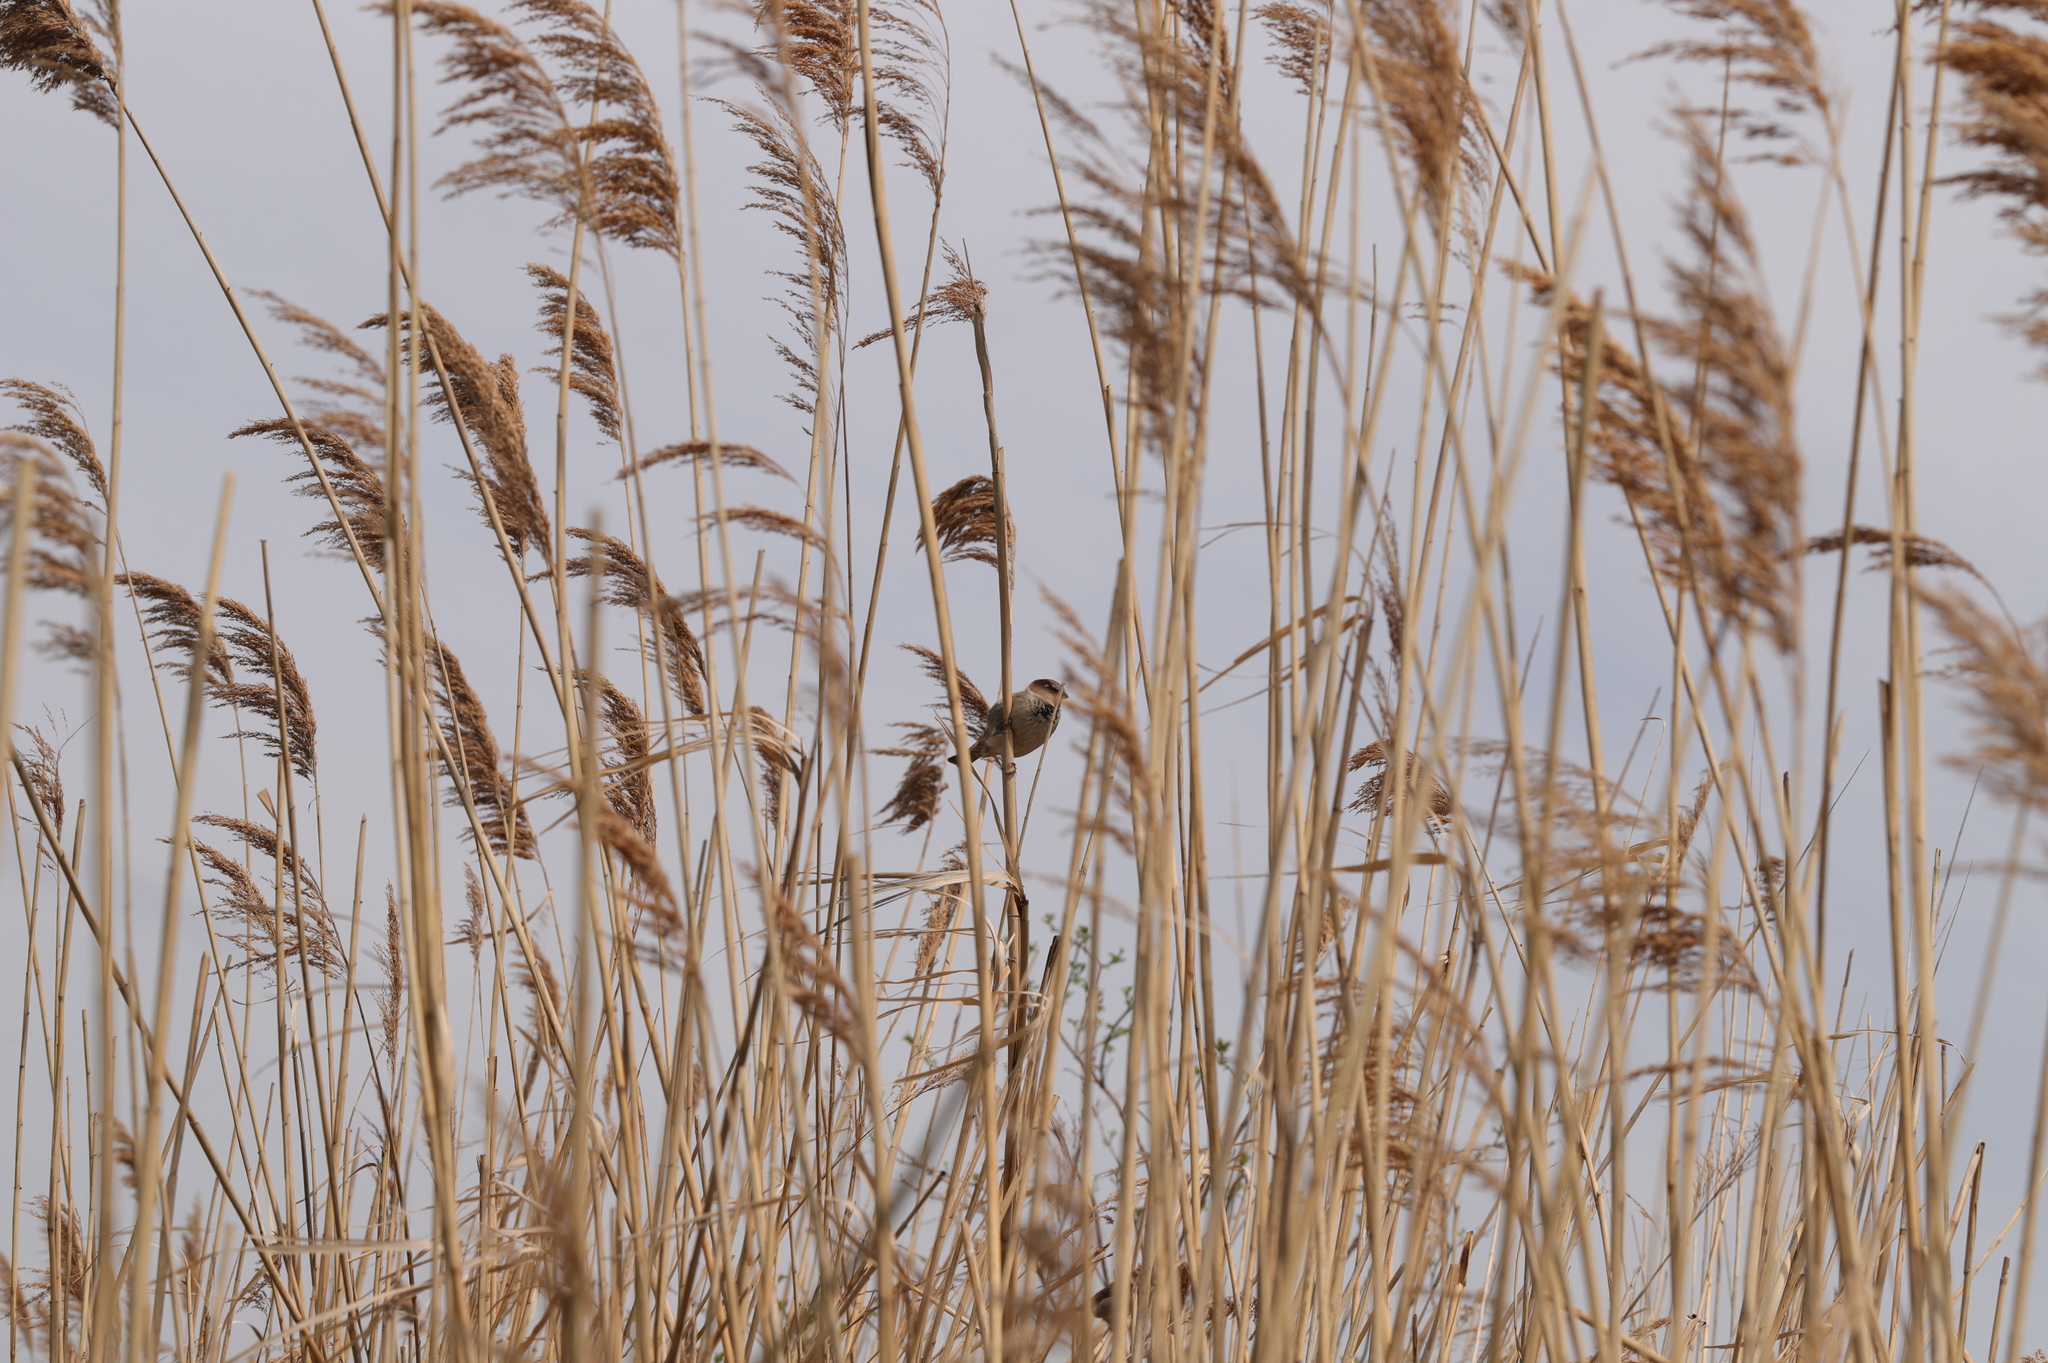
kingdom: Animalia
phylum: Chordata
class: Aves
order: Passeriformes
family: Passeridae
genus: Passer
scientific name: Passer domesticus
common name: House sparrow
